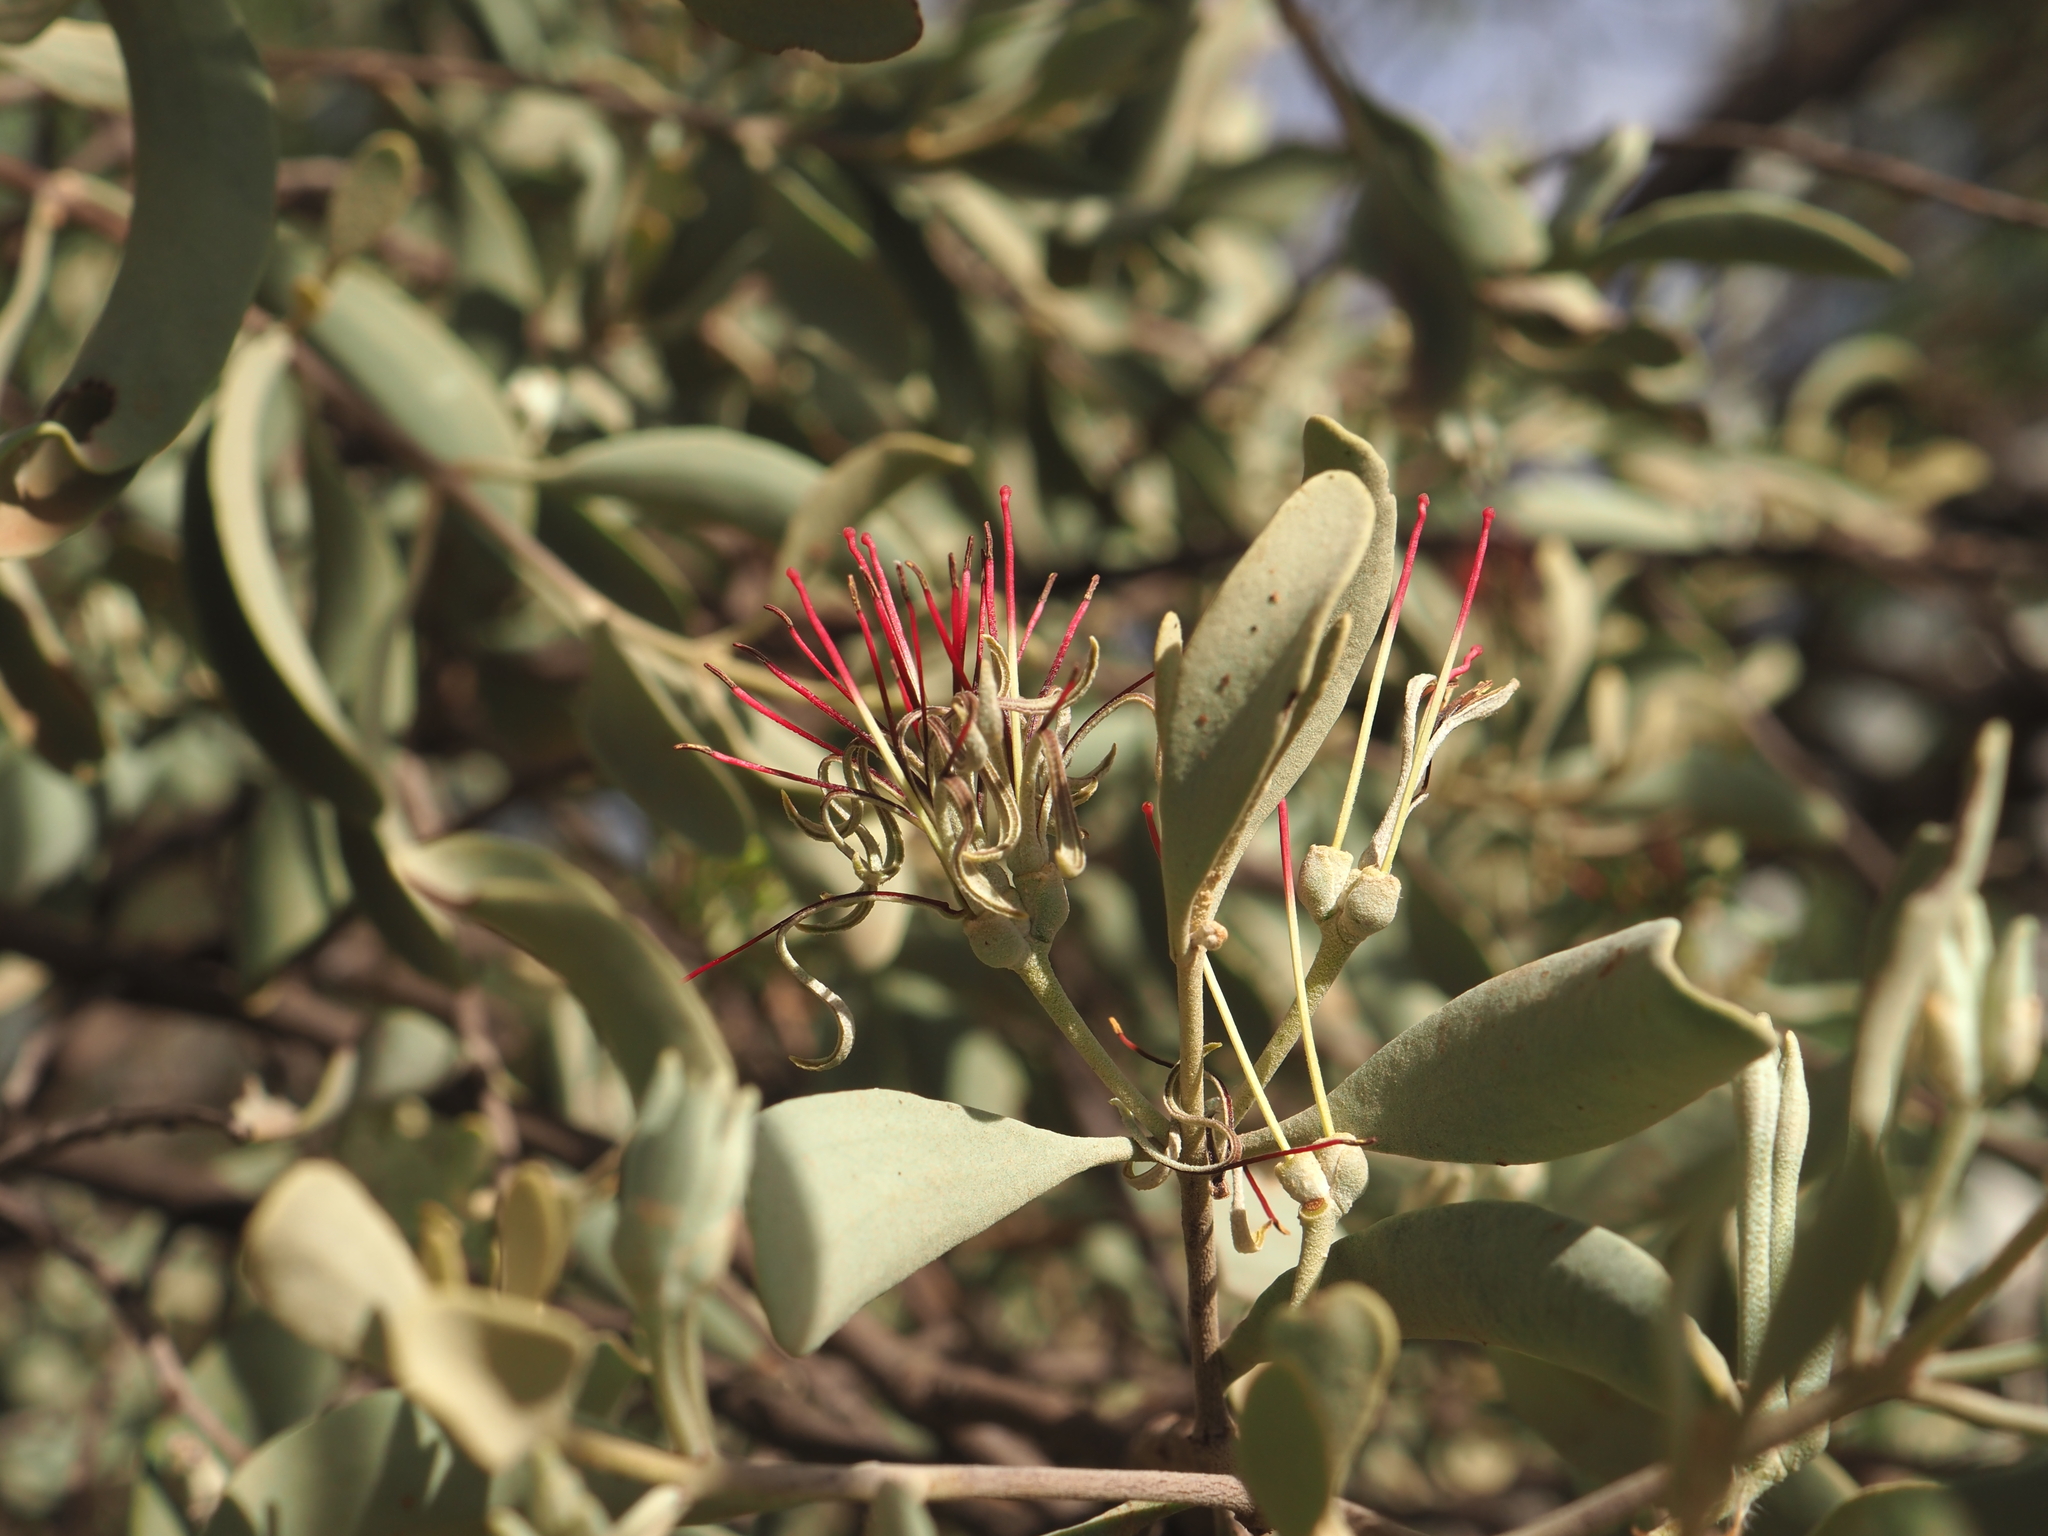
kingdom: Plantae
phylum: Tracheophyta
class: Magnoliopsida
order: Santalales
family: Loranthaceae
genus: Amyema
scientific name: Amyema fitzgeraldii
